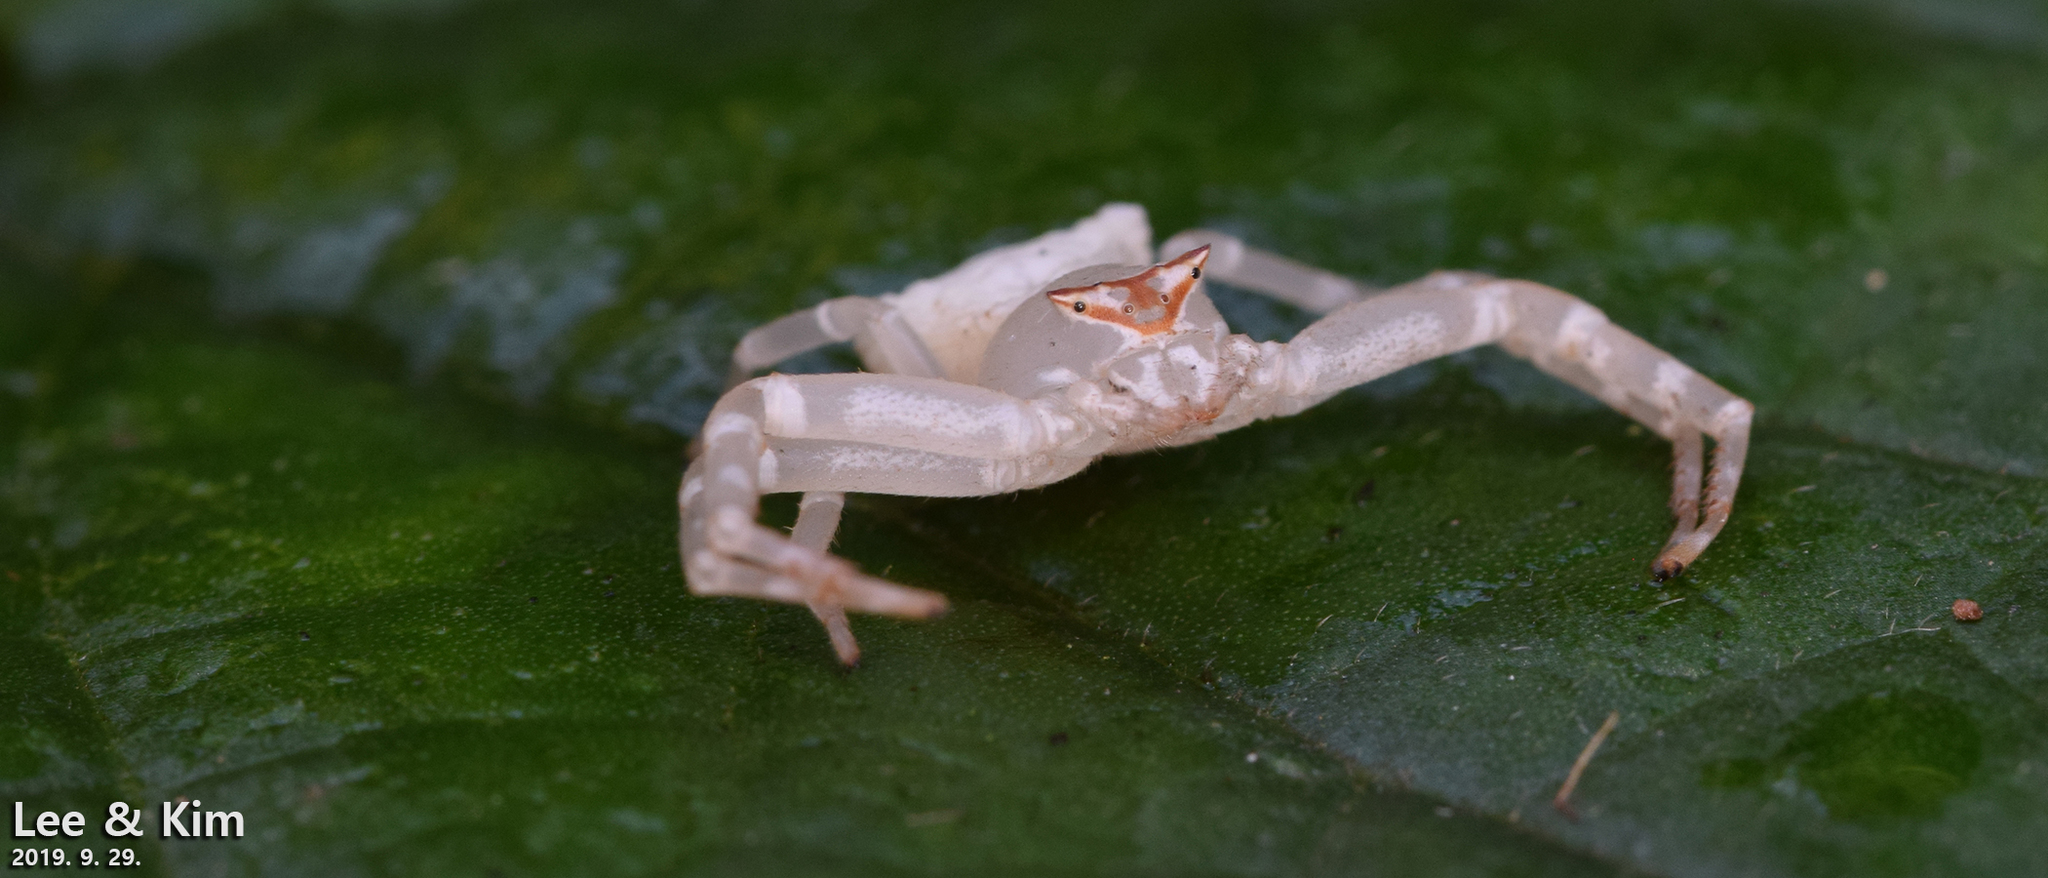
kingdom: Animalia
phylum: Arthropoda
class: Arachnida
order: Araneae
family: Thomisidae
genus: Thomisus
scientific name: Thomisus labefactus
